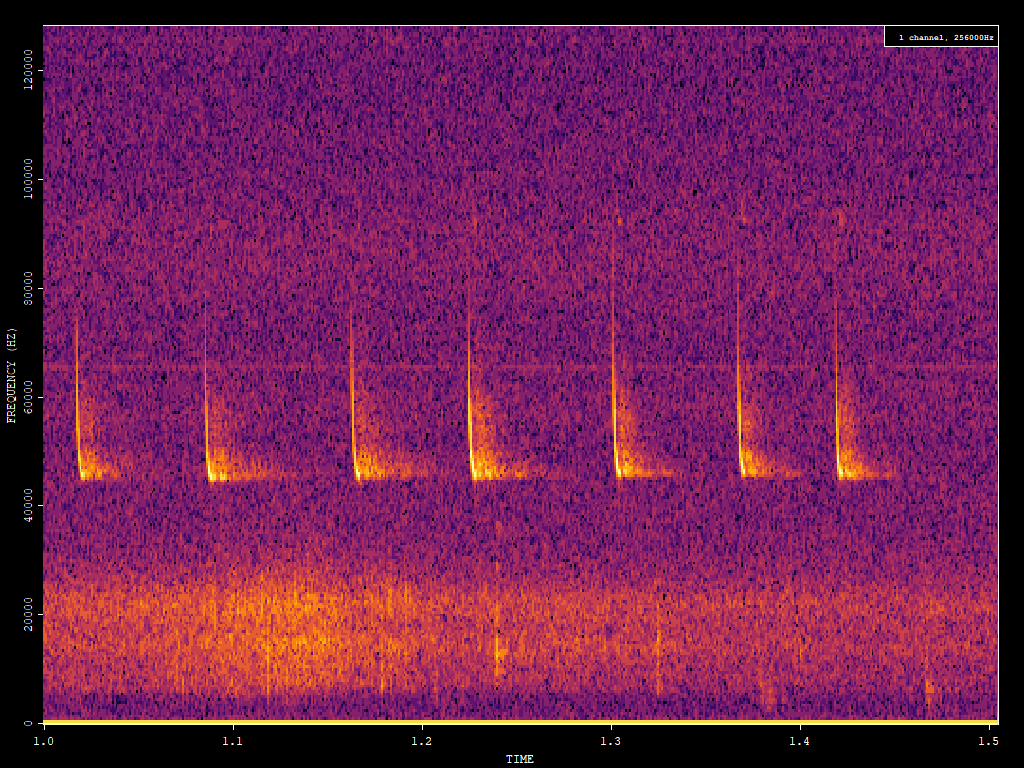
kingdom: Animalia
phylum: Chordata
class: Mammalia
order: Chiroptera
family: Vespertilionidae
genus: Pipistrellus
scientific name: Pipistrellus pipistrellus
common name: Common pipistrelle
